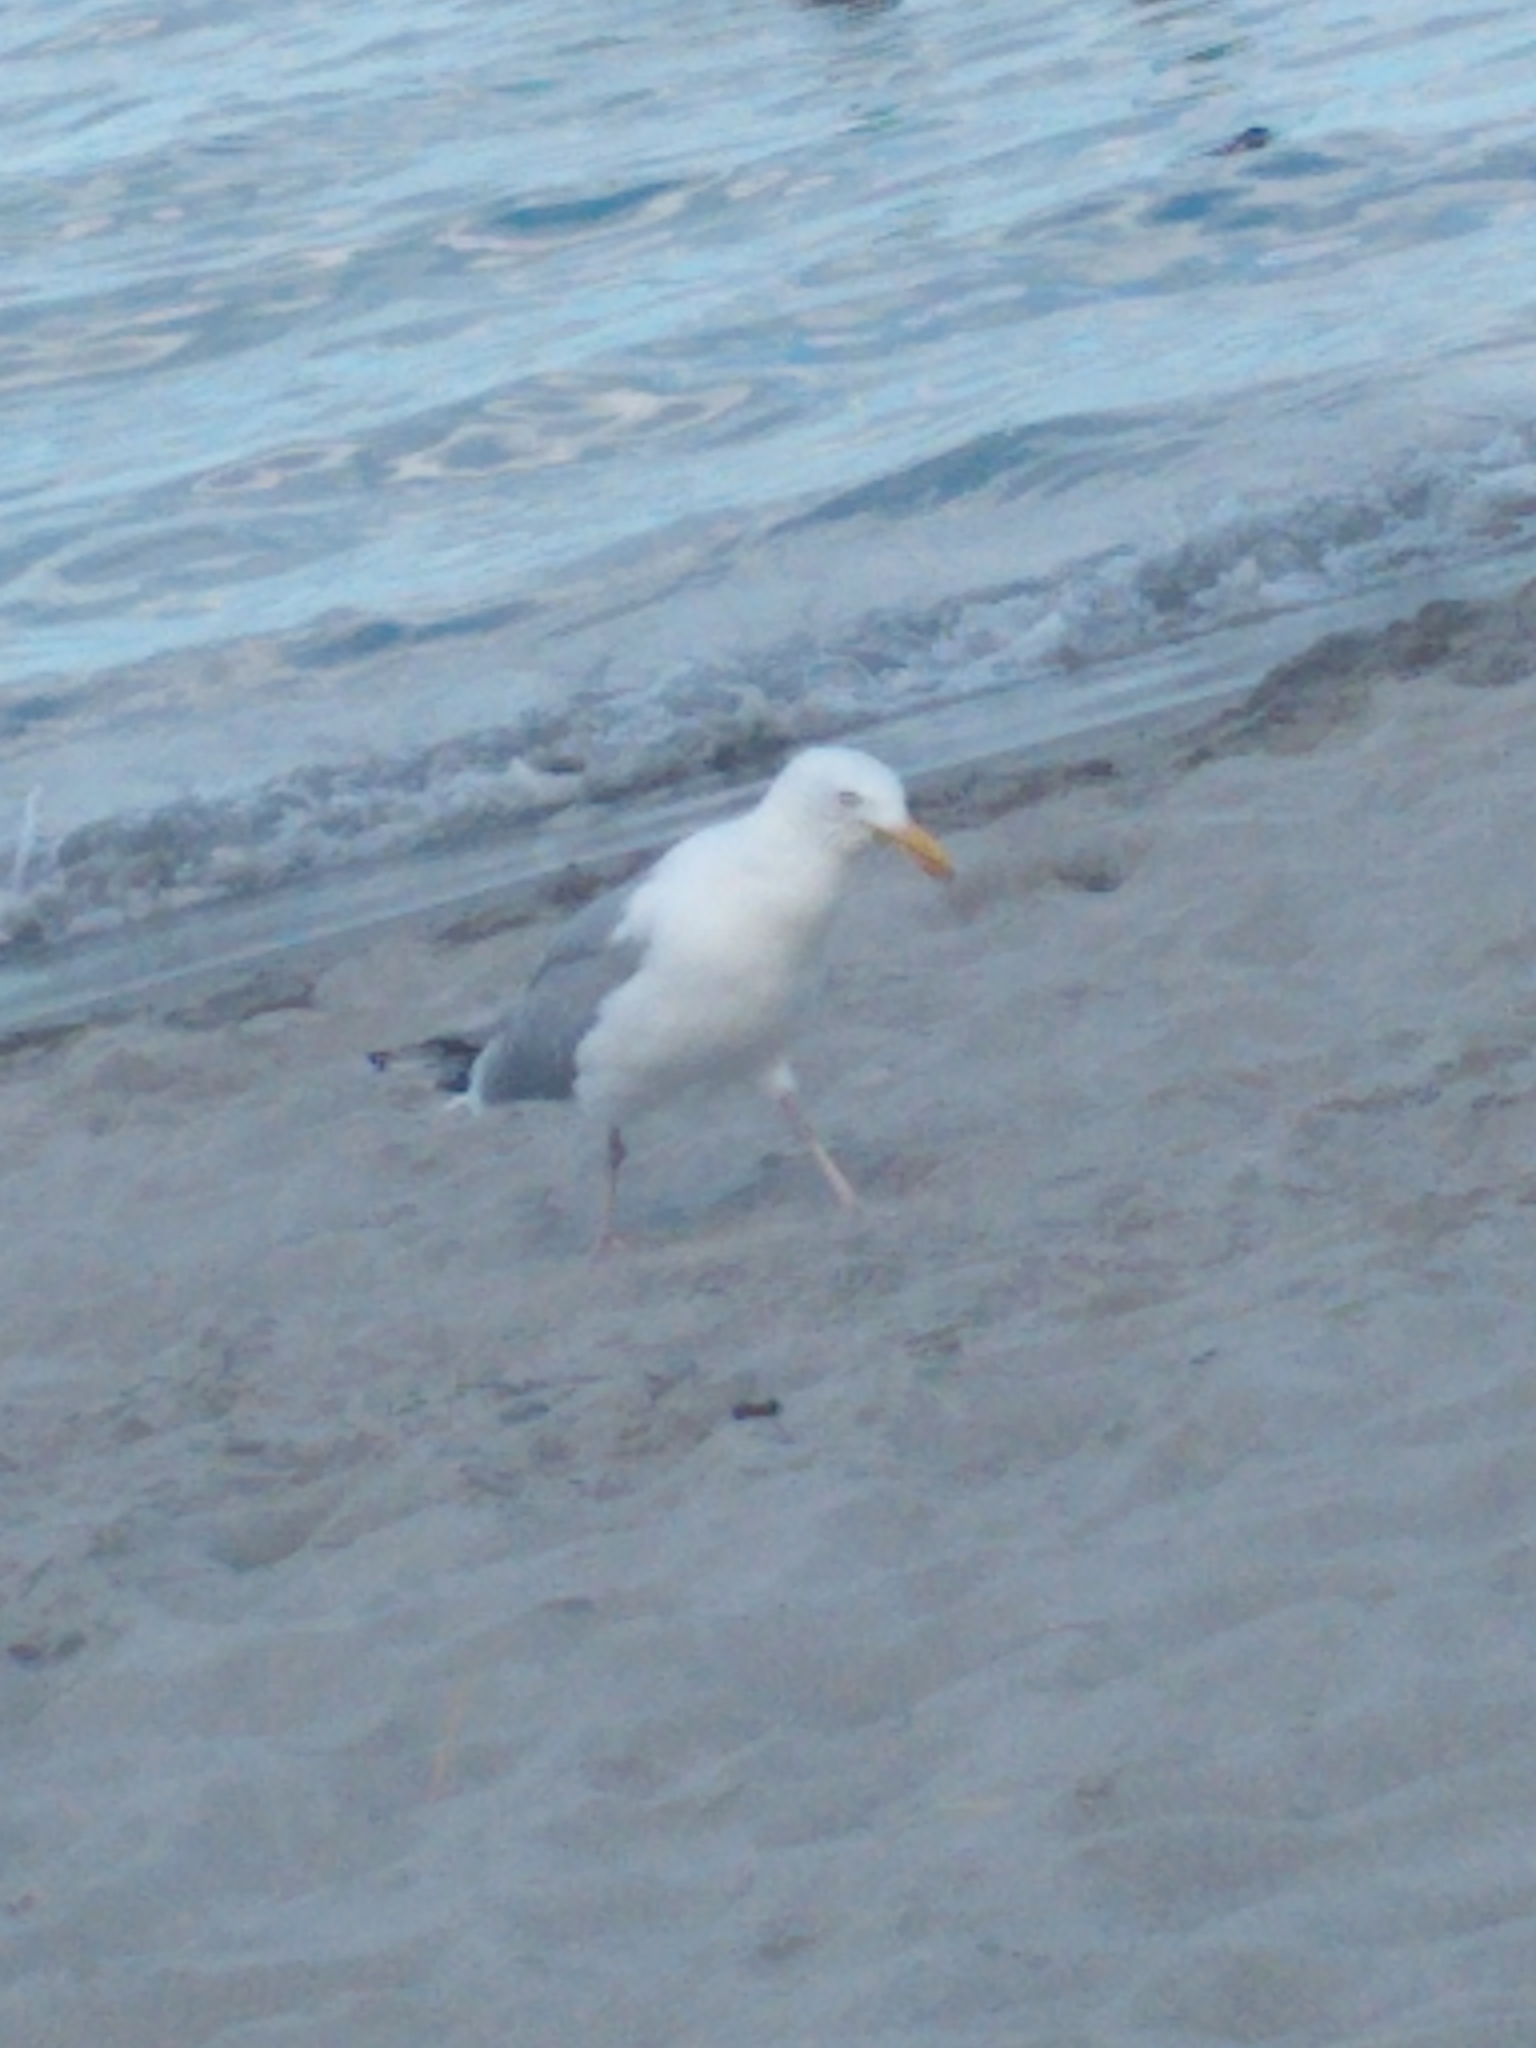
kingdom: Animalia
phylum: Chordata
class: Aves
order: Charadriiformes
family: Laridae
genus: Larus
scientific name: Larus argentatus
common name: Herring gull
